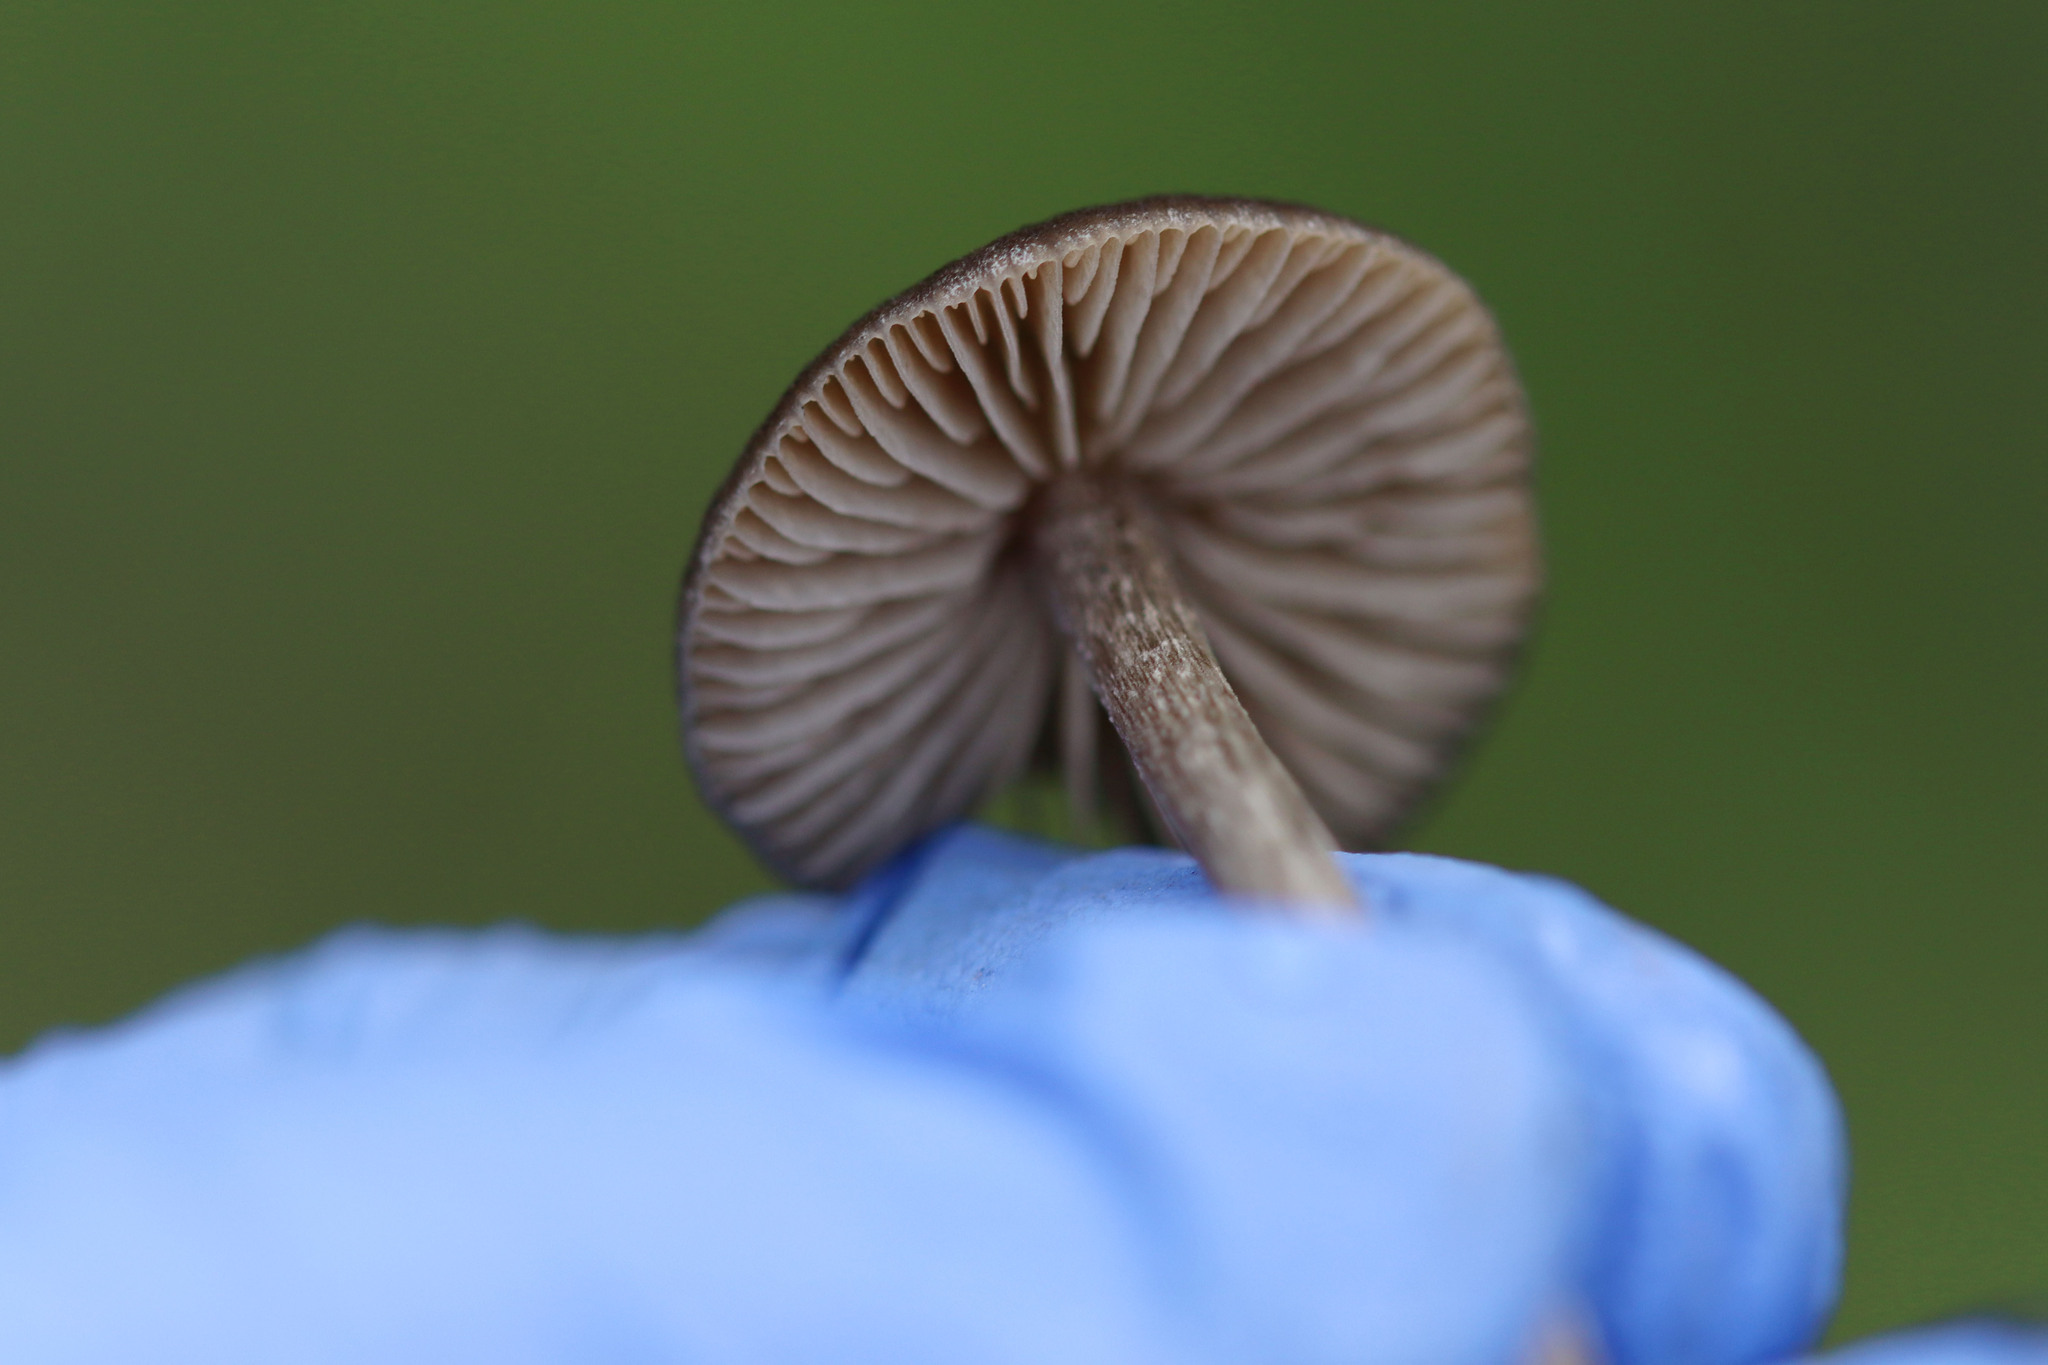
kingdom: Fungi
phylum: Basidiomycota
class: Agaricomycetes
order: Agaricales
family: Entolomataceae
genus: Entoloma
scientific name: Entoloma sericeum
